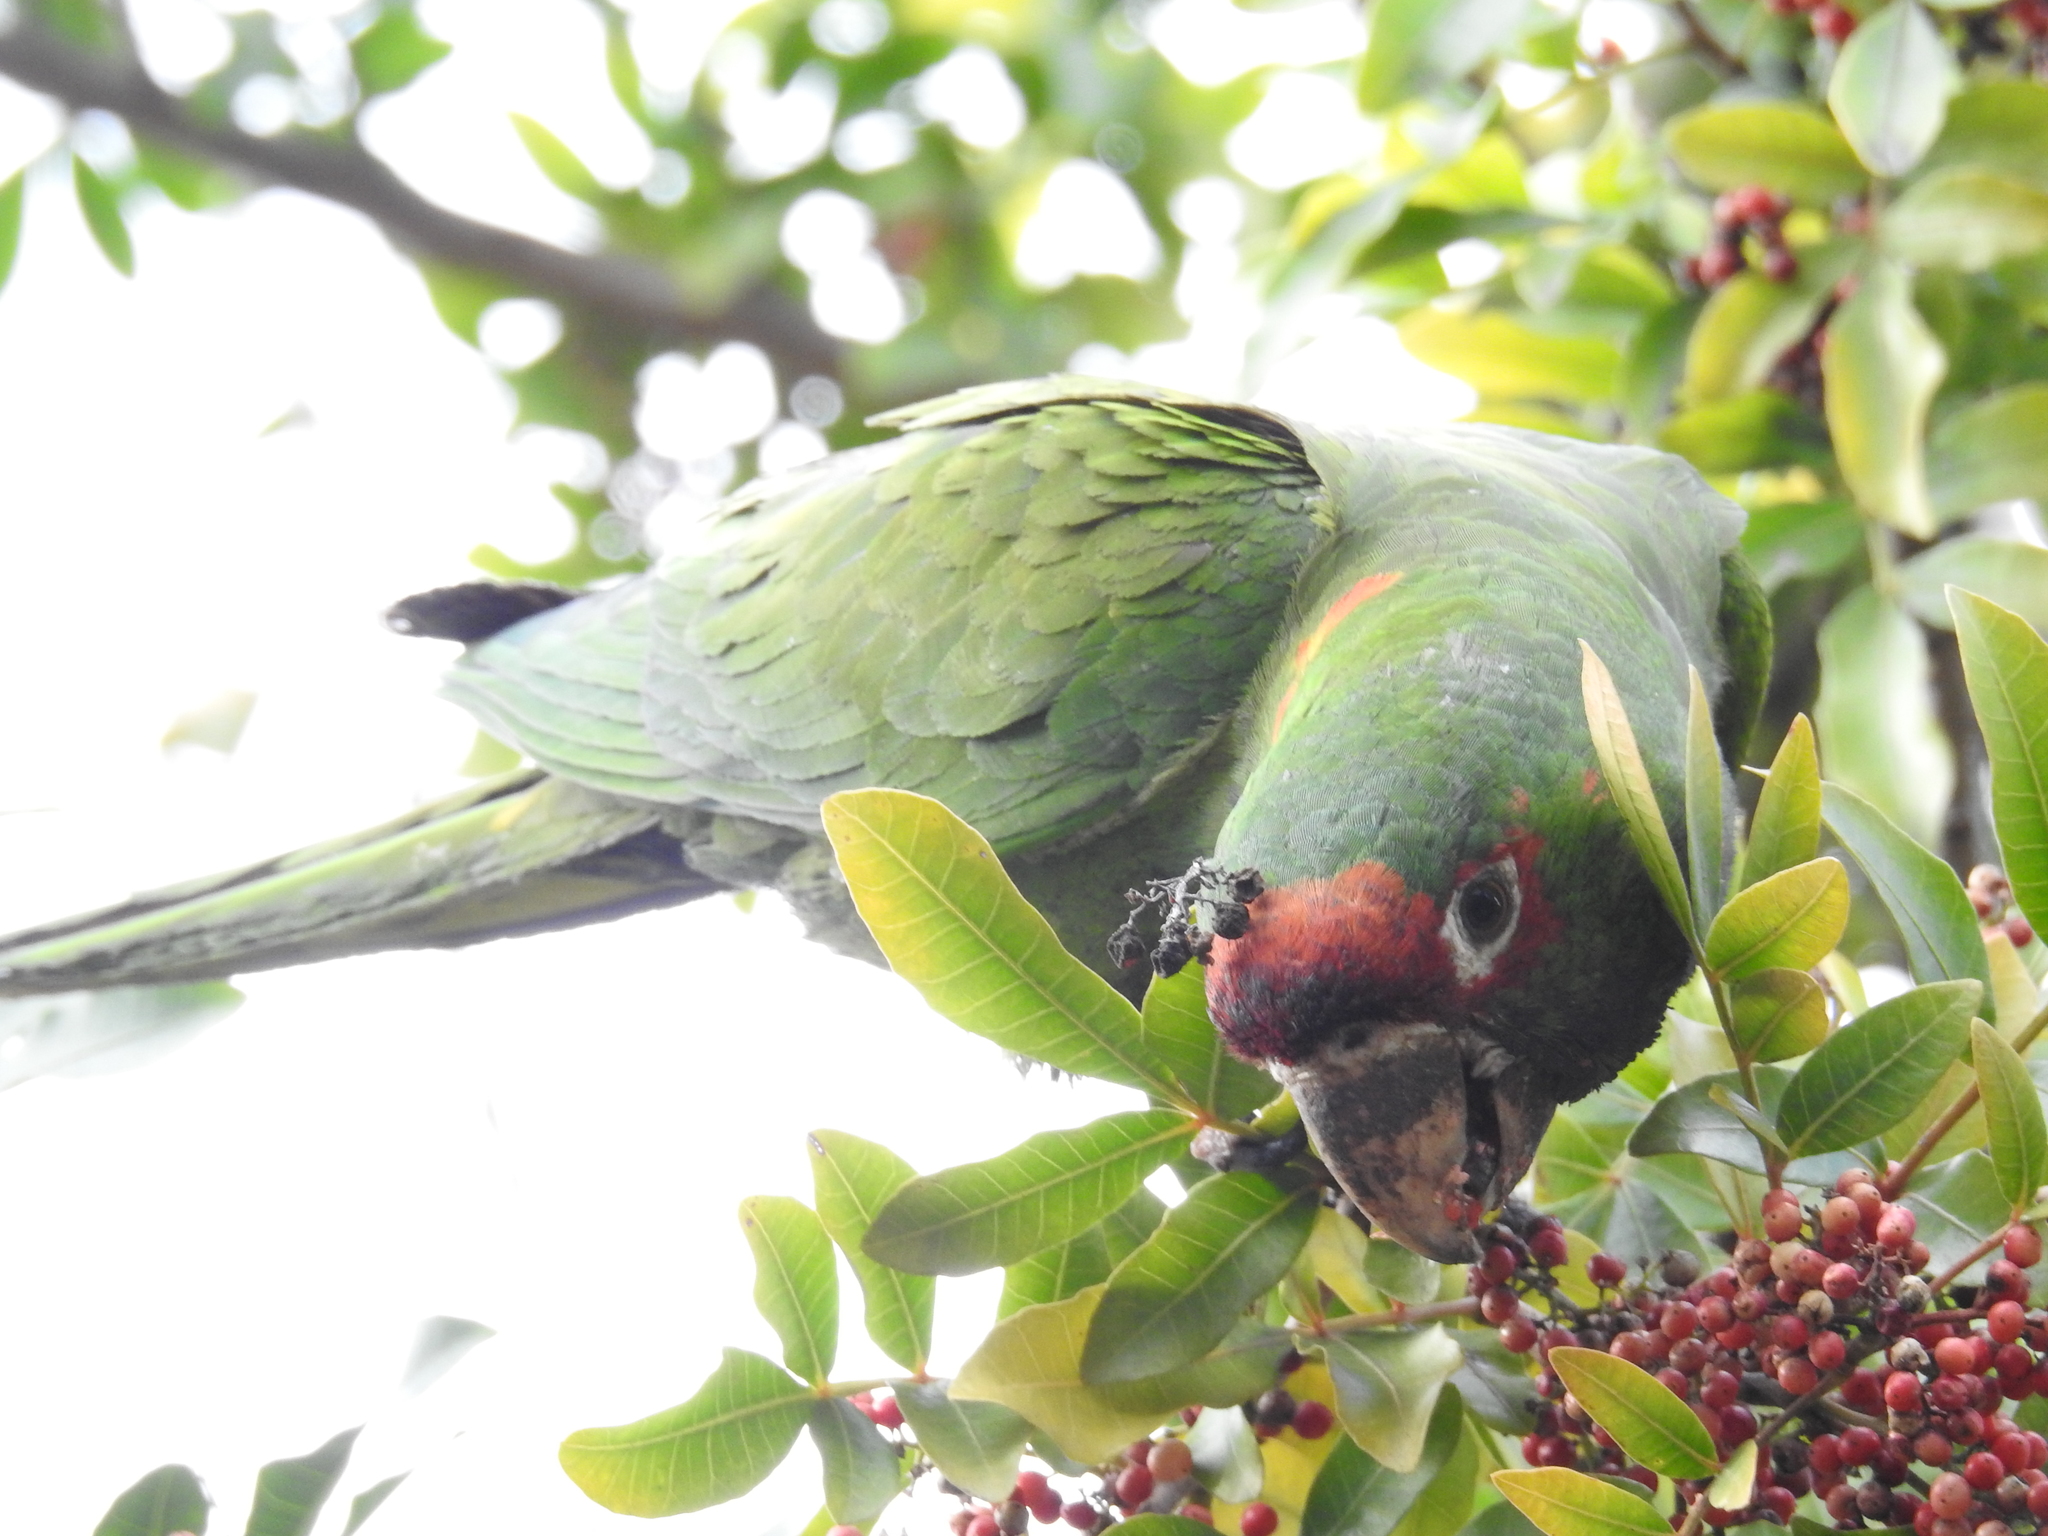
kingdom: Animalia
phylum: Chordata
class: Aves
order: Psittaciformes
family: Psittacidae
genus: Aratinga
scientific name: Aratinga mitrata
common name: Mitred parakeet
